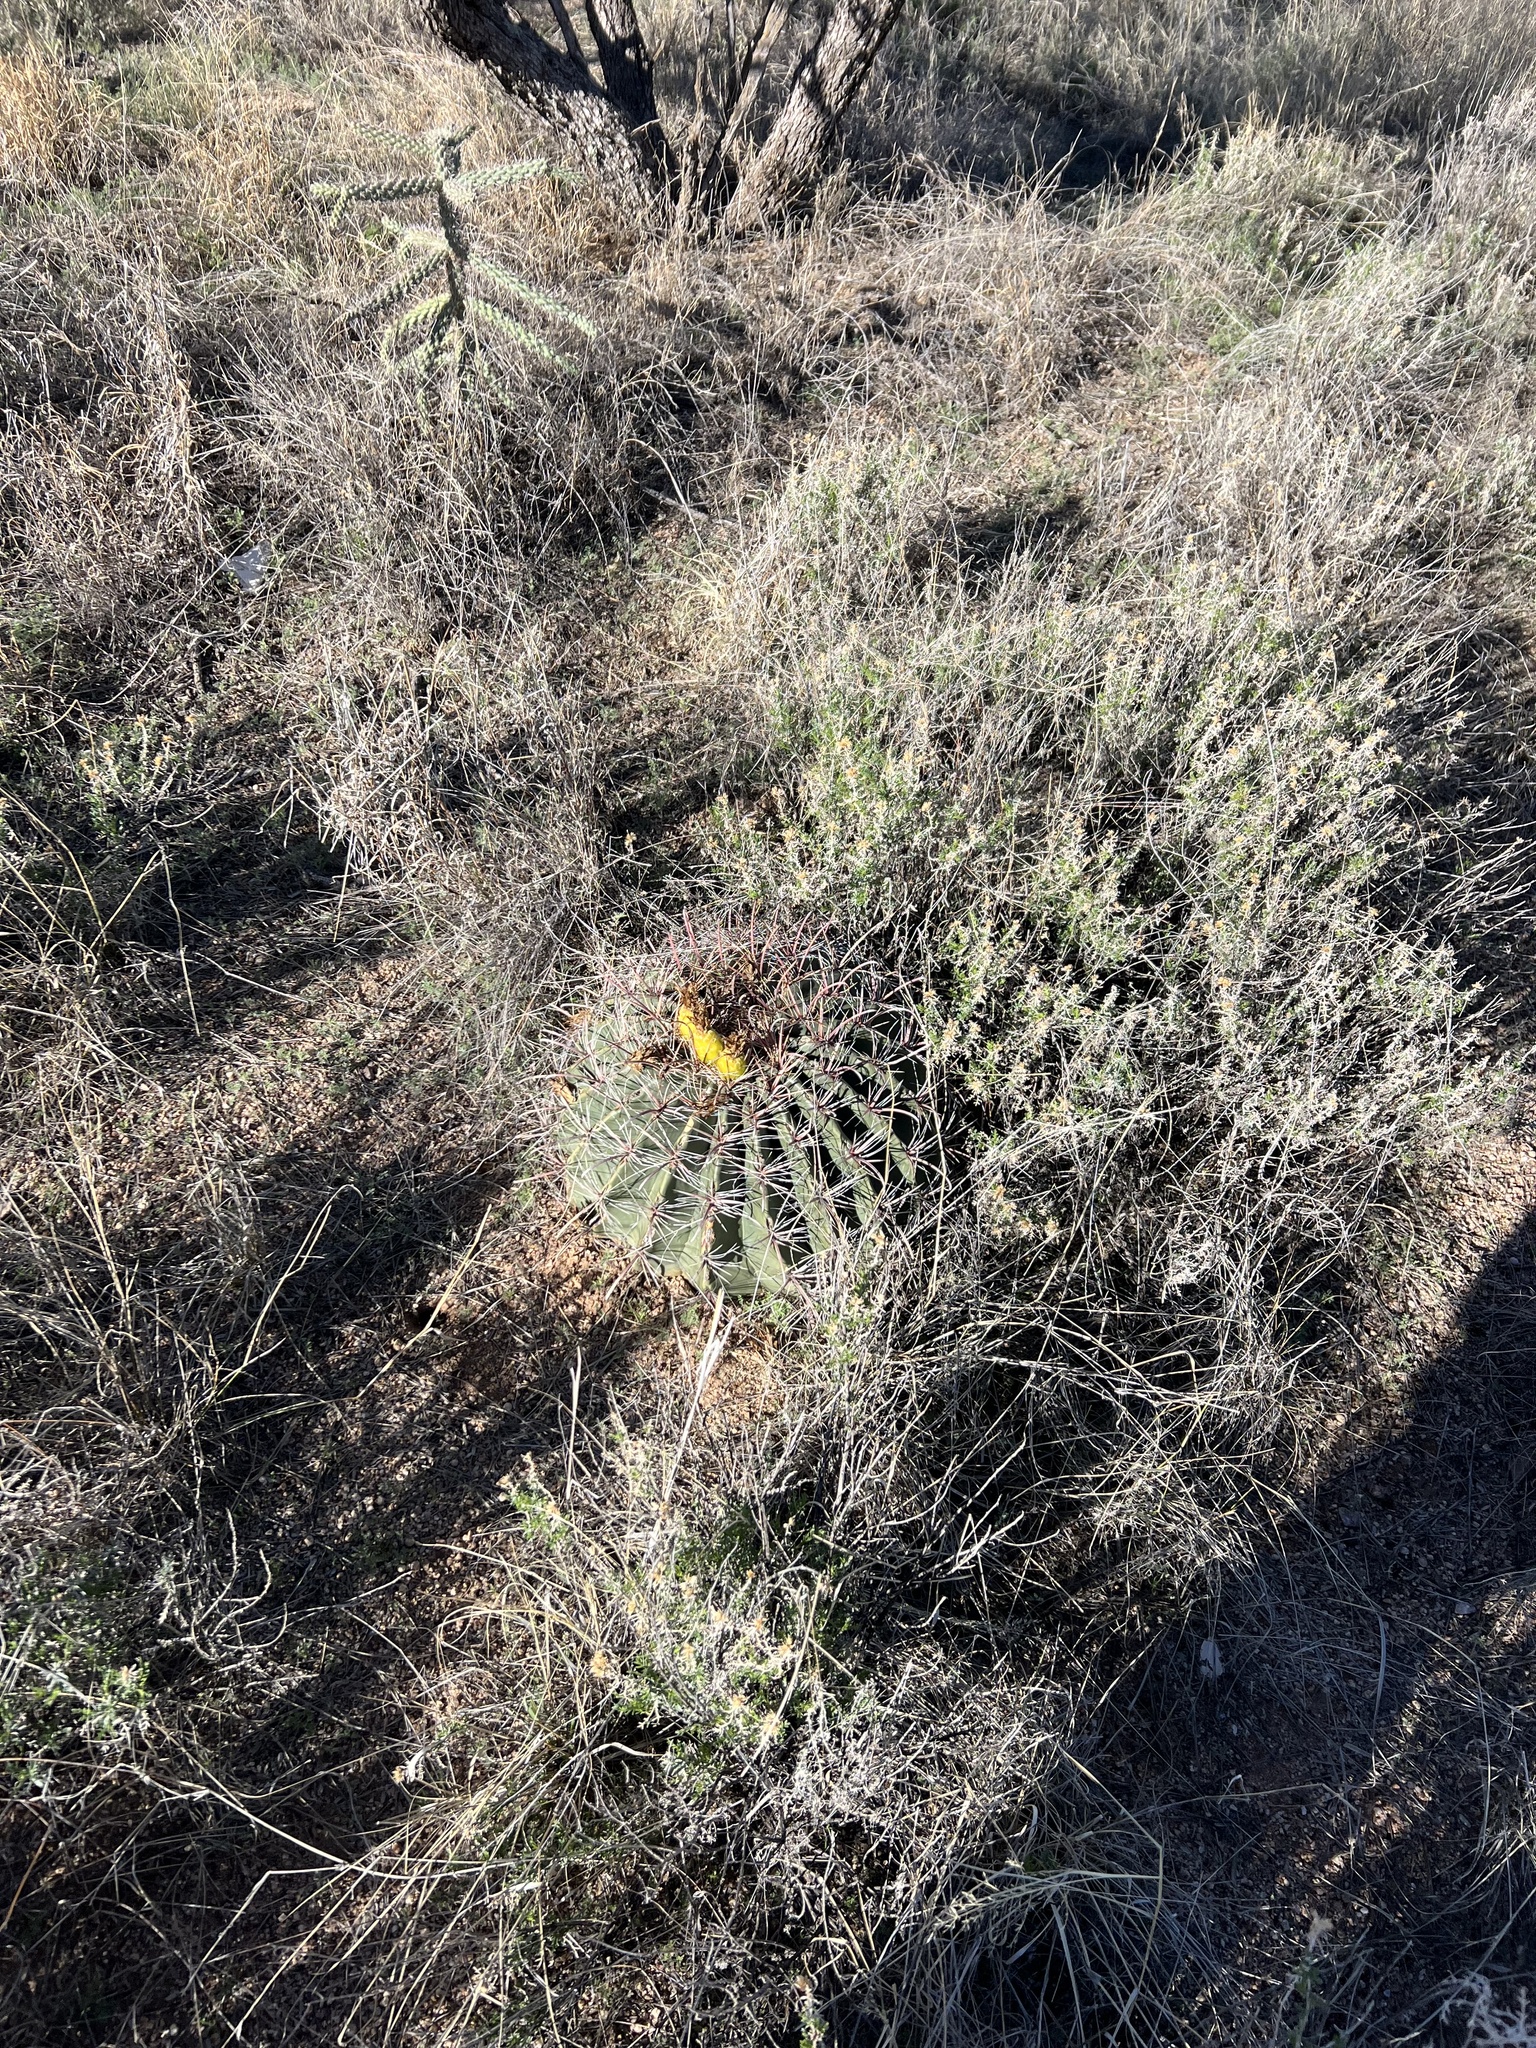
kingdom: Plantae
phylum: Tracheophyta
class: Magnoliopsida
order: Caryophyllales
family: Cactaceae
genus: Ferocactus
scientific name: Ferocactus wislizeni
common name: Candy barrel cactus
